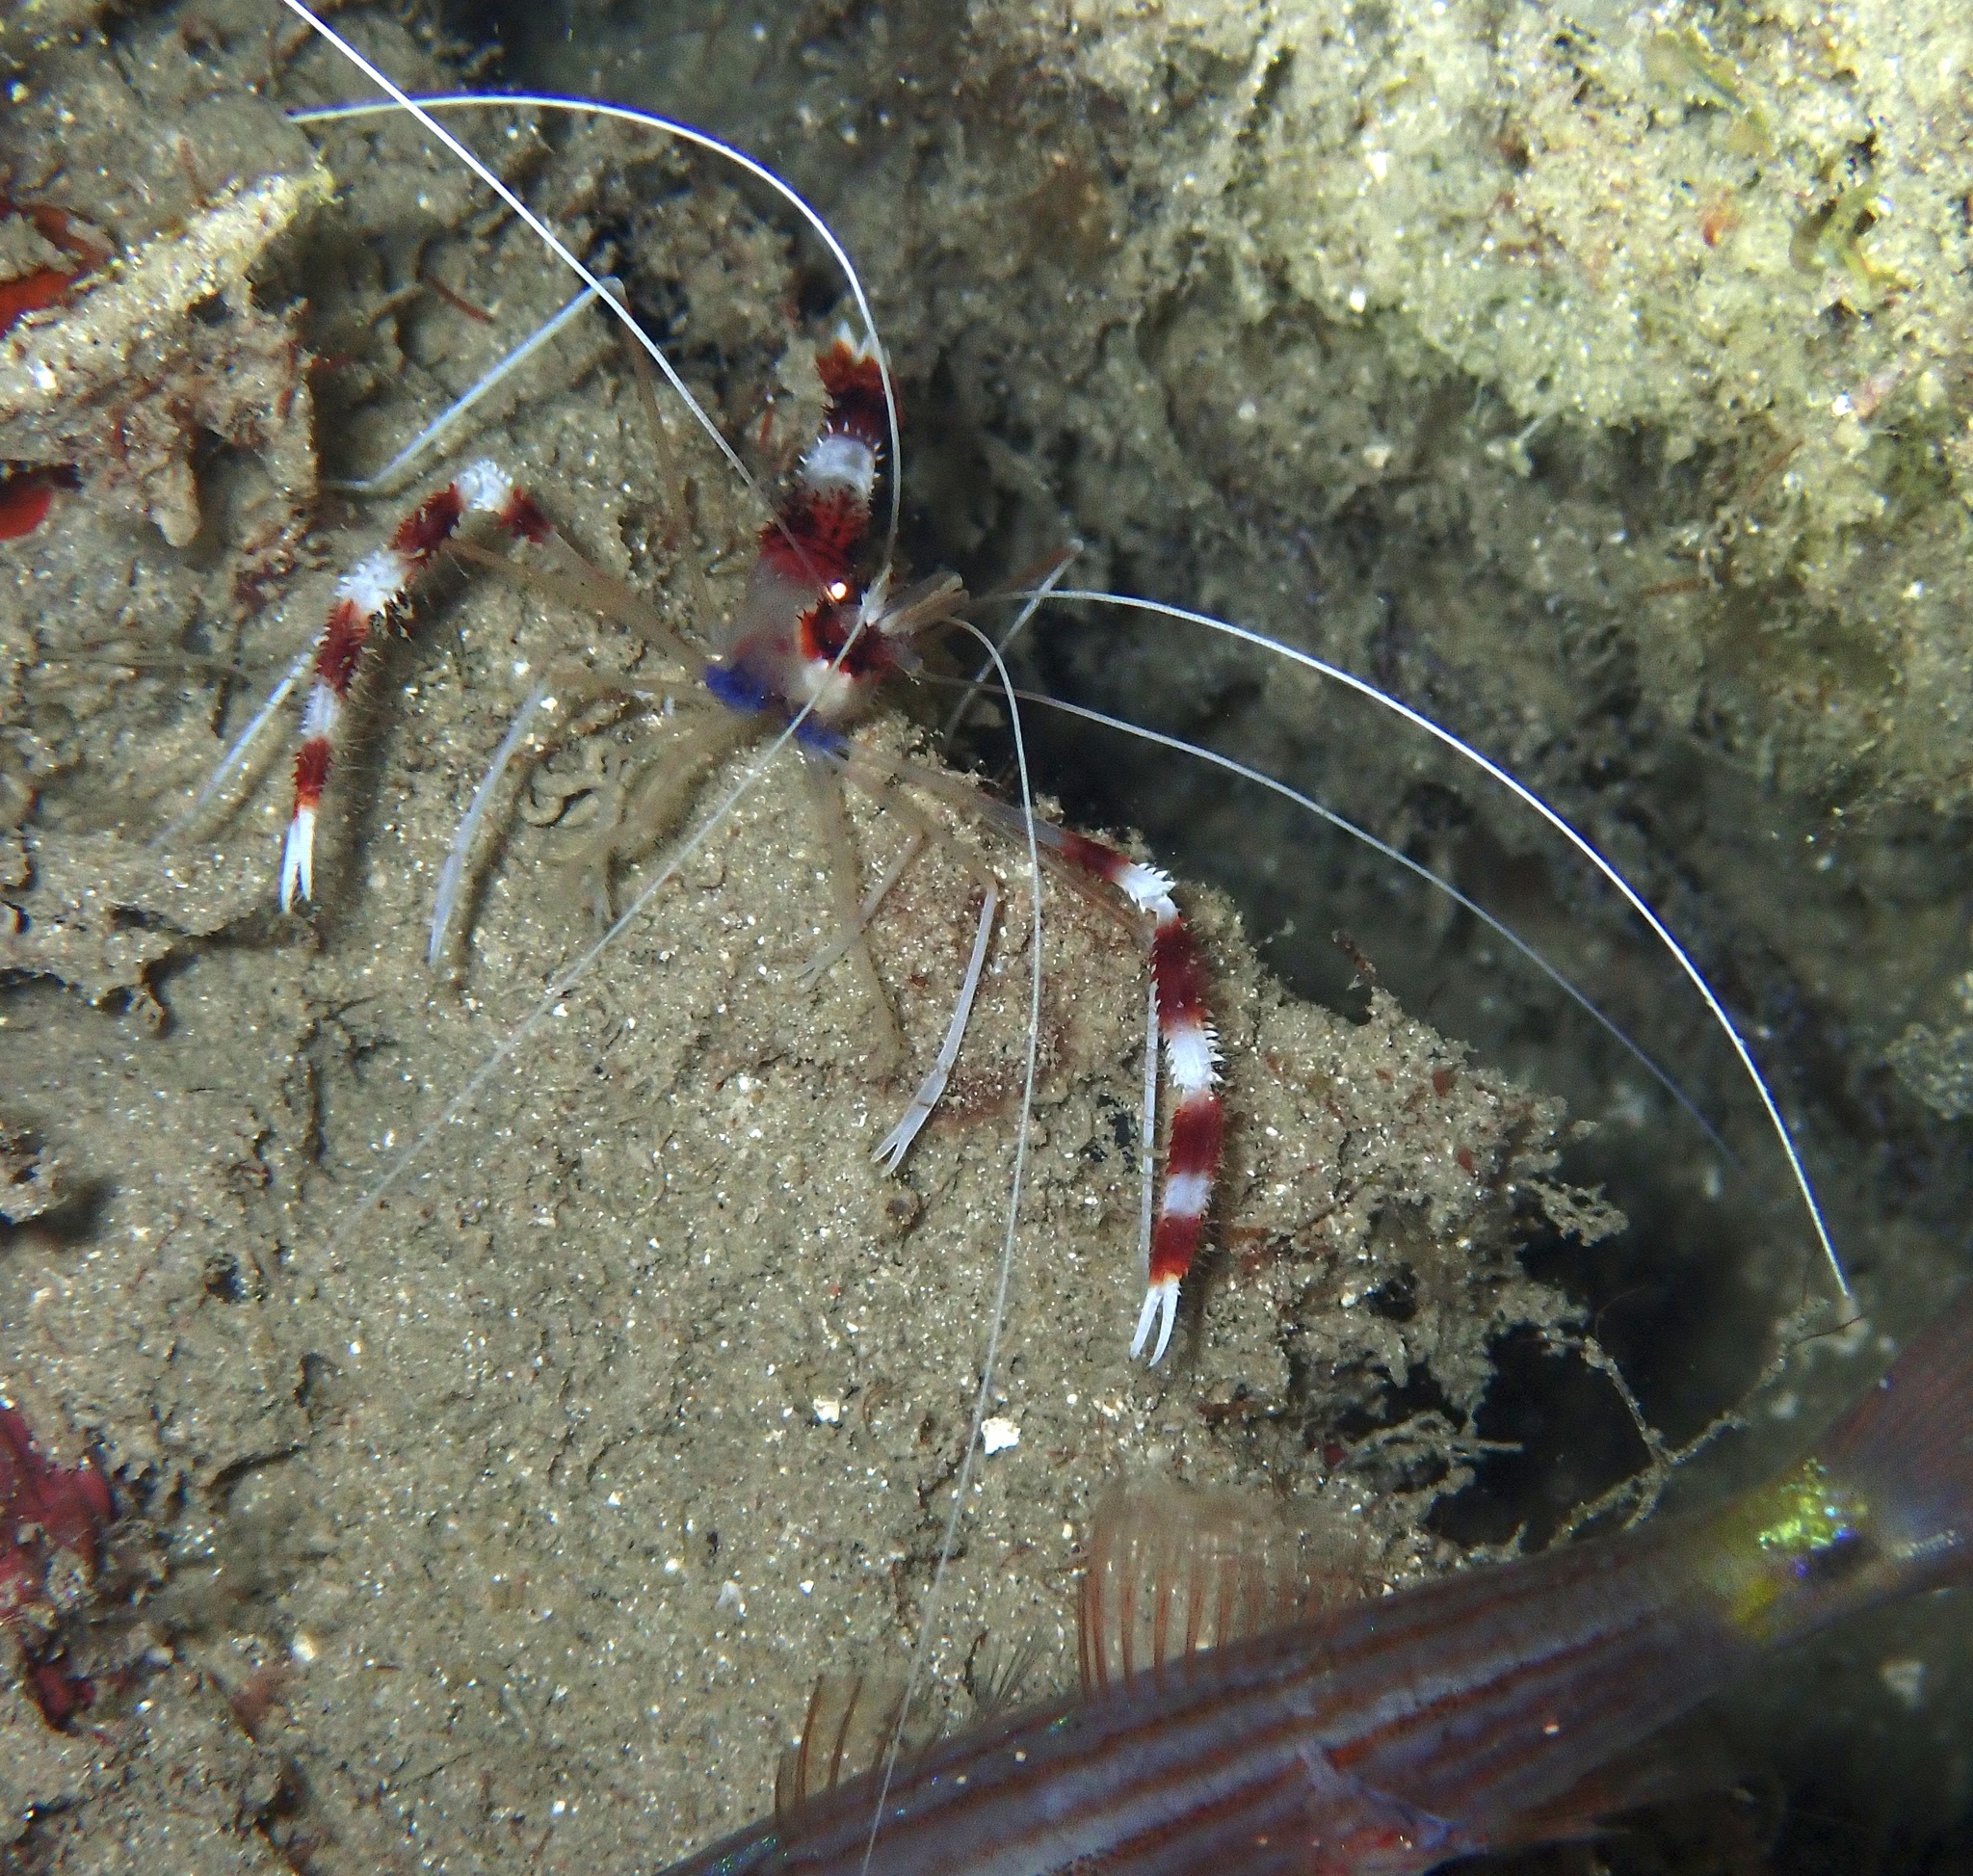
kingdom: Animalia
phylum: Arthropoda
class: Malacostraca
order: Decapoda
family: Stenopodidae
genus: Stenopus
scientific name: Stenopus hispidus
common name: Banded coral shrimp
